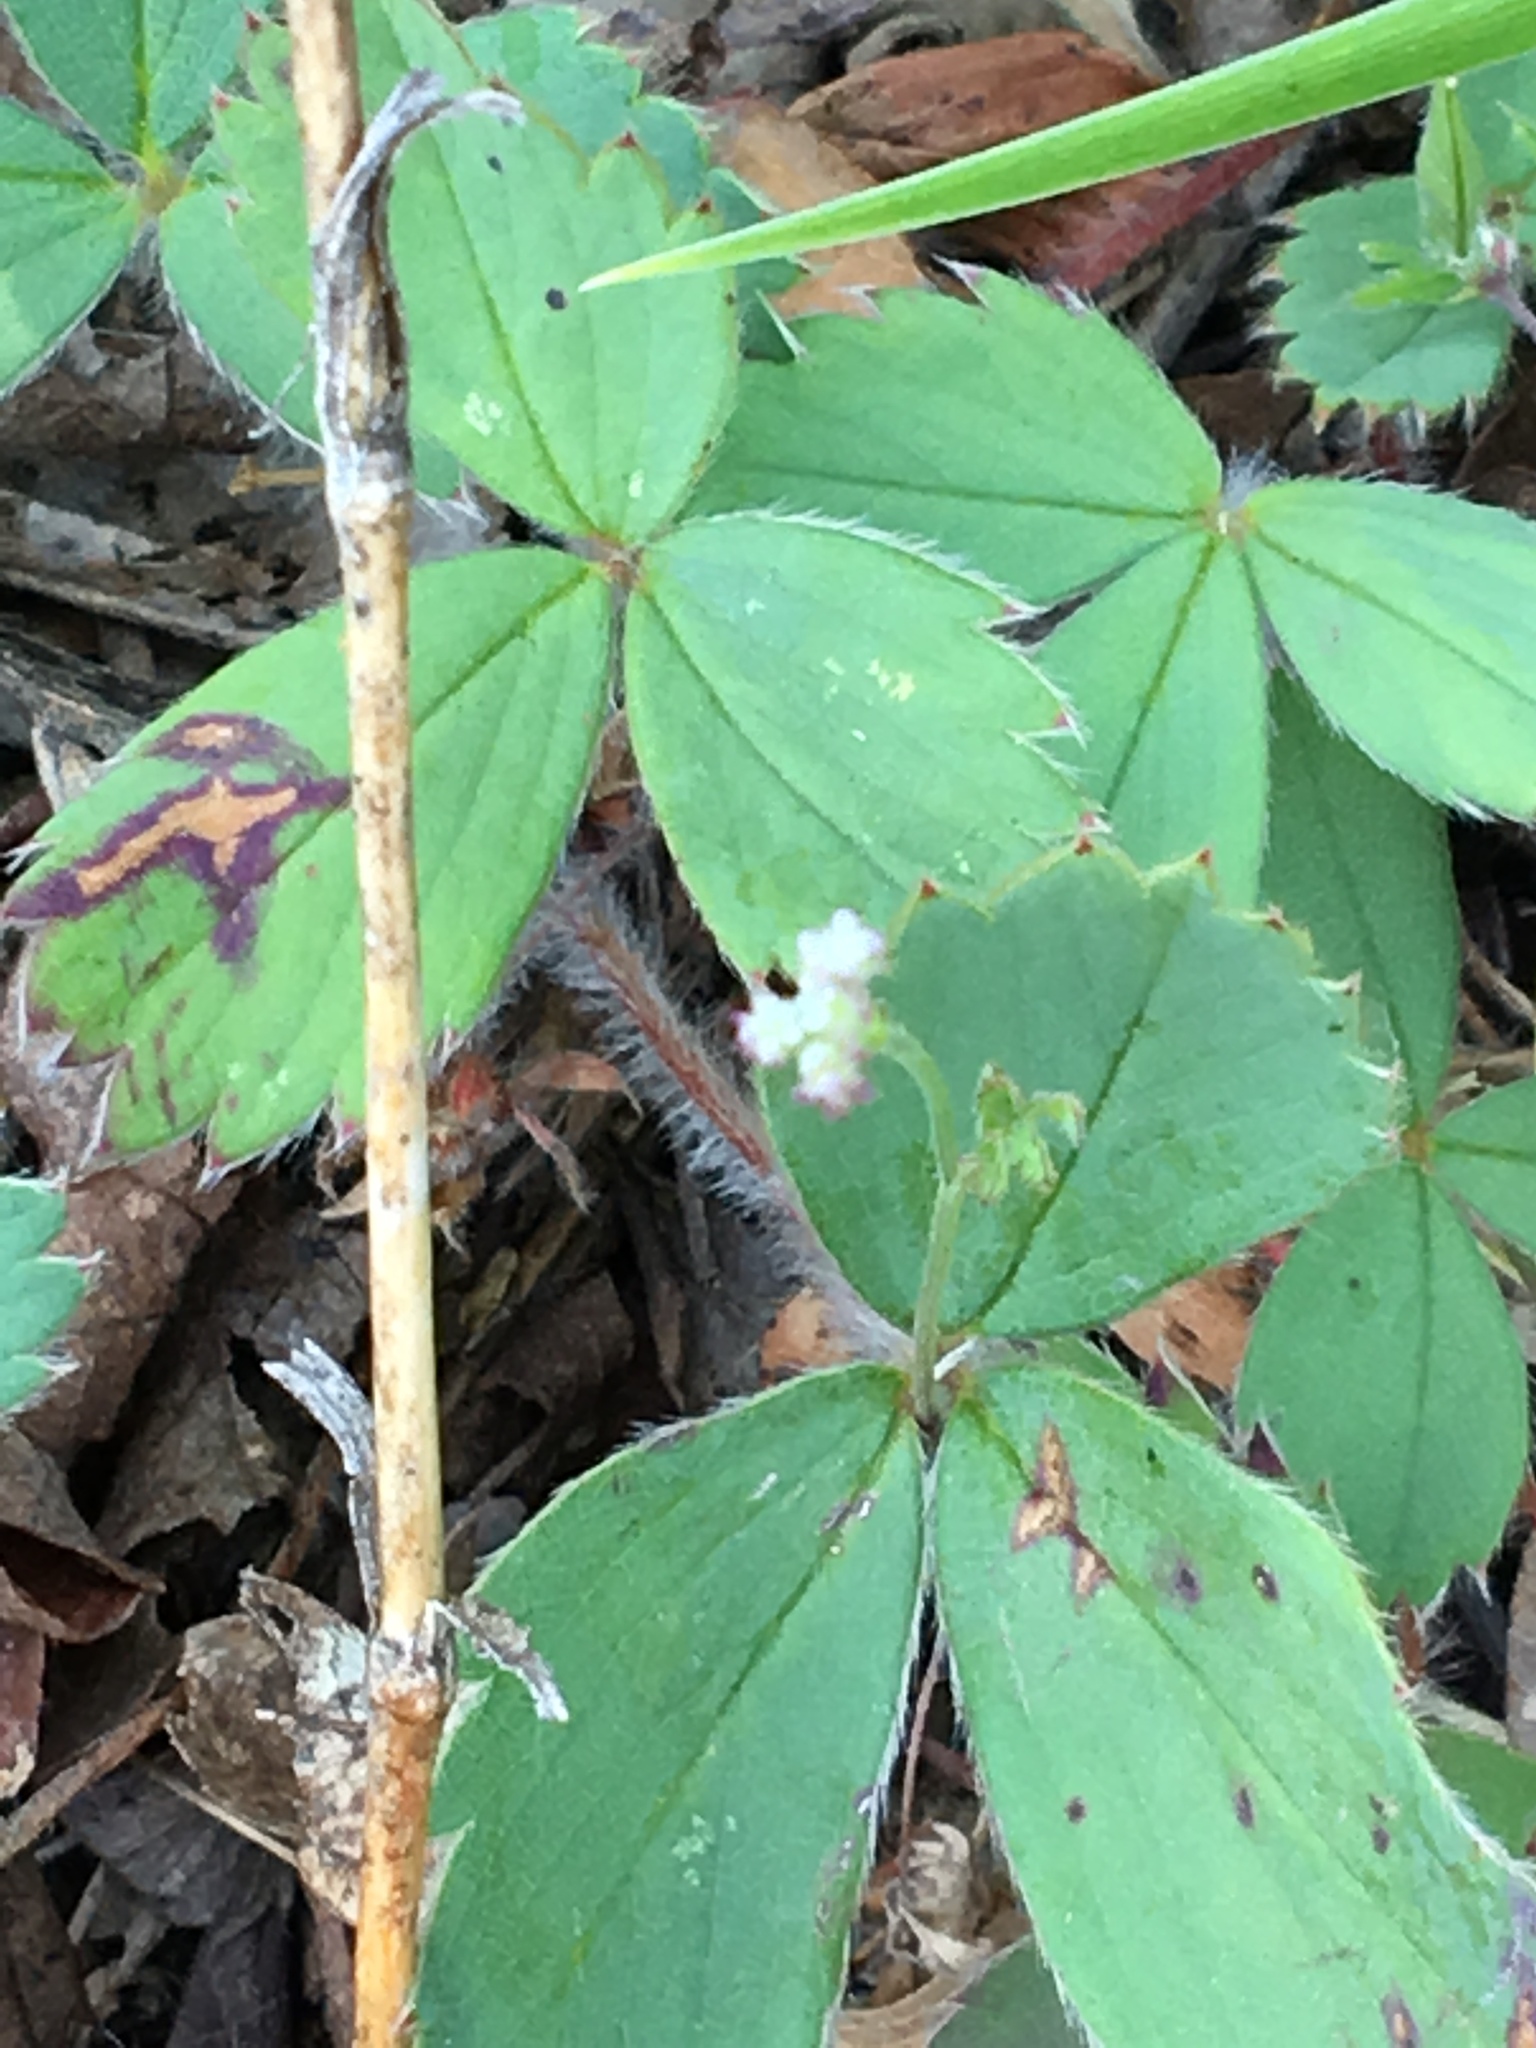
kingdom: Plantae
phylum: Tracheophyta
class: Magnoliopsida
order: Rosales
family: Rosaceae
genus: Fragaria
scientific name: Fragaria virginiana
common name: Thickleaved wild strawberry
